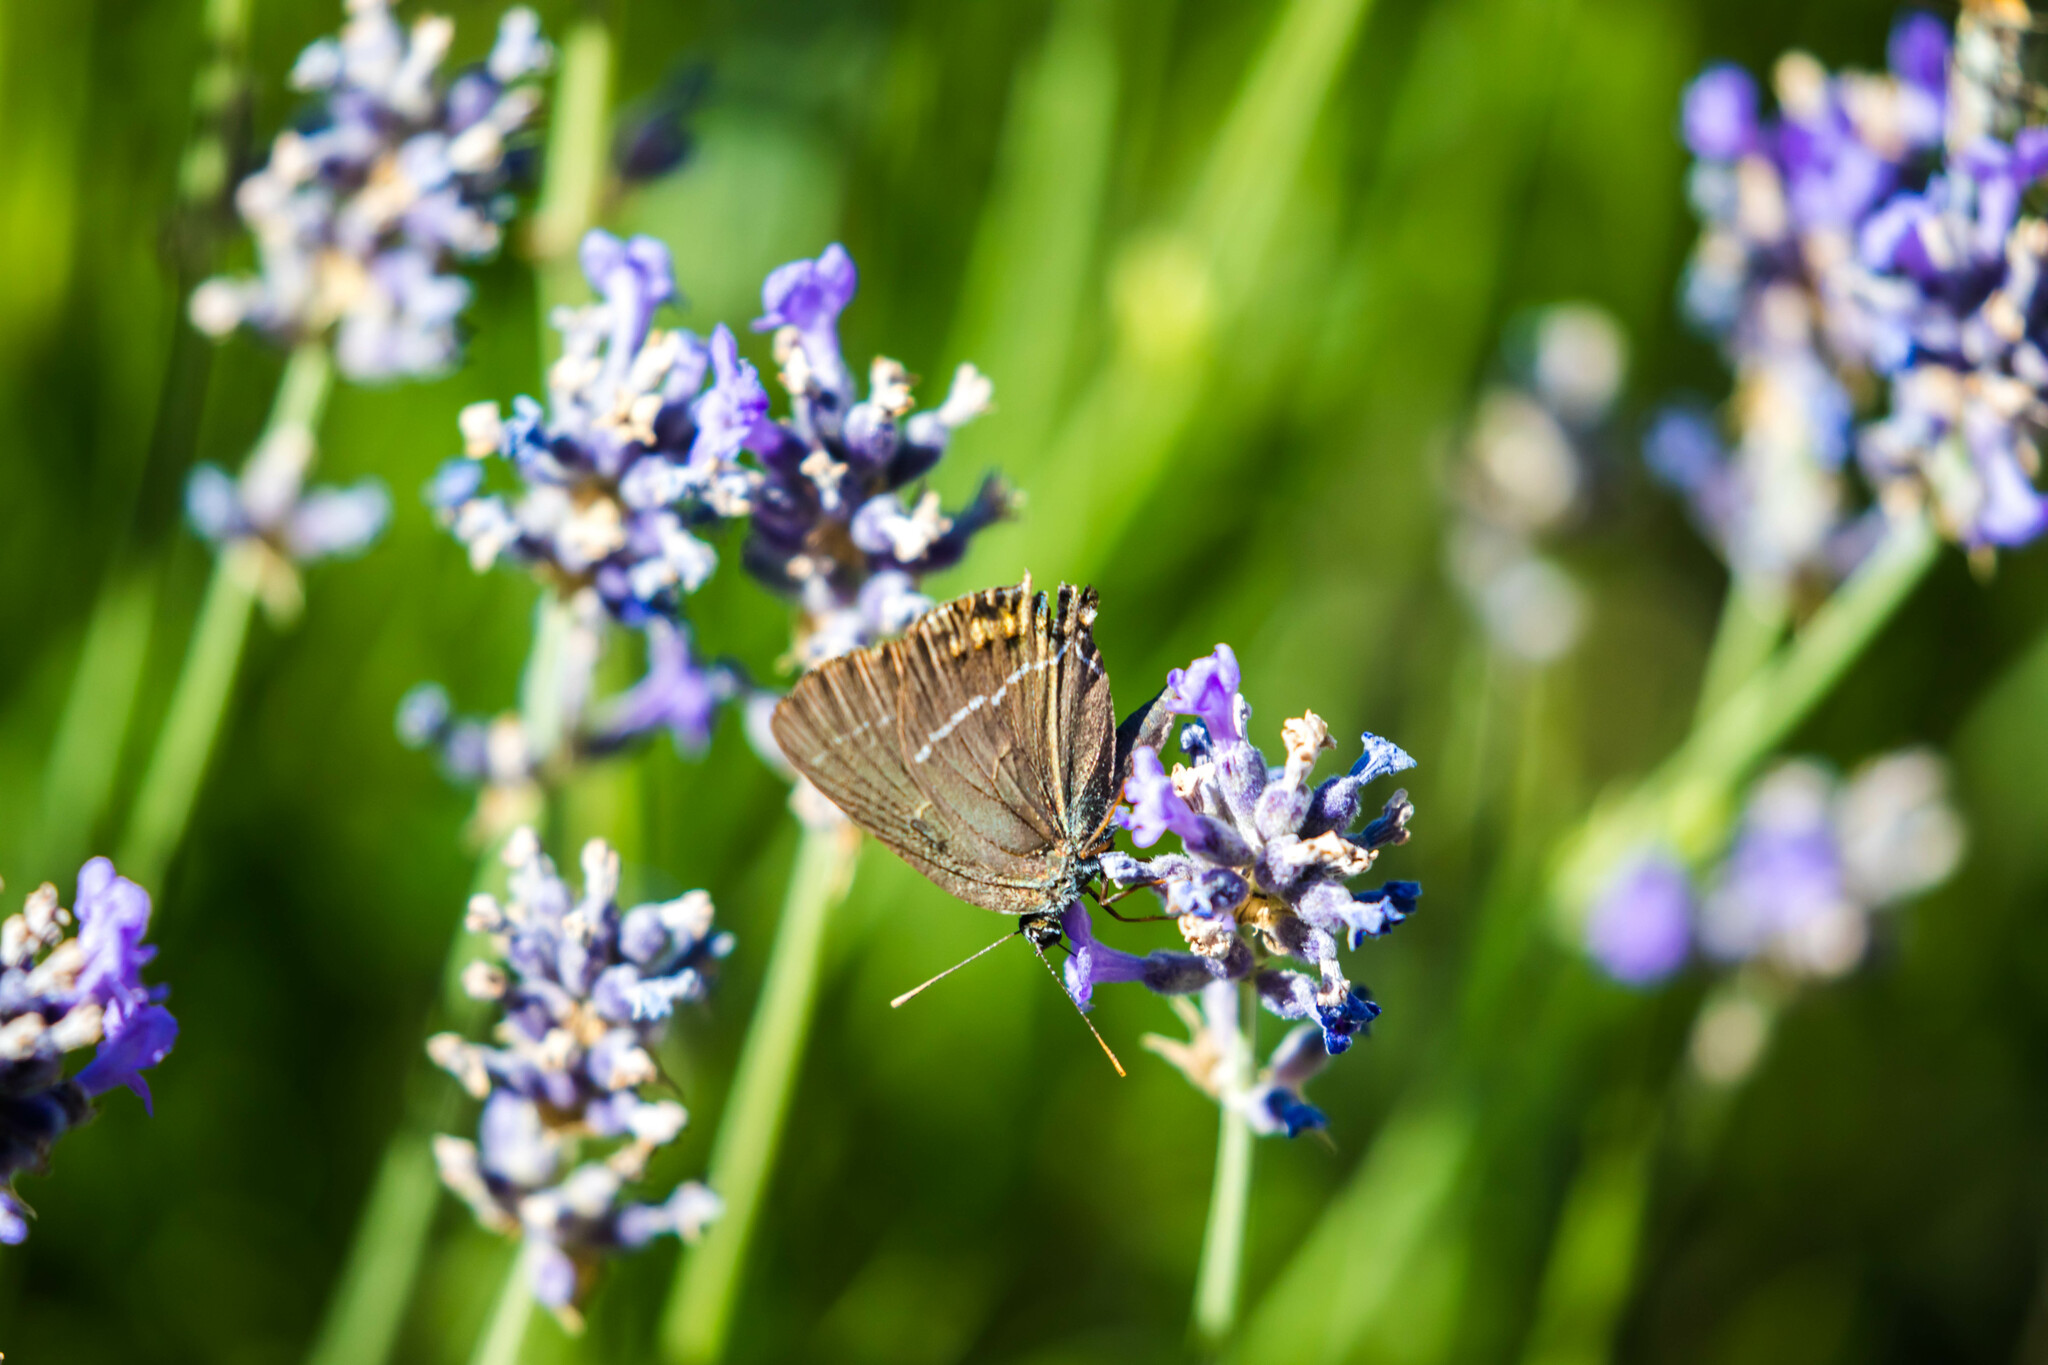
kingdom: Animalia
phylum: Arthropoda
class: Insecta
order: Lepidoptera
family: Lycaenidae
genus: Tuttiola
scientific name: Tuttiola spini
